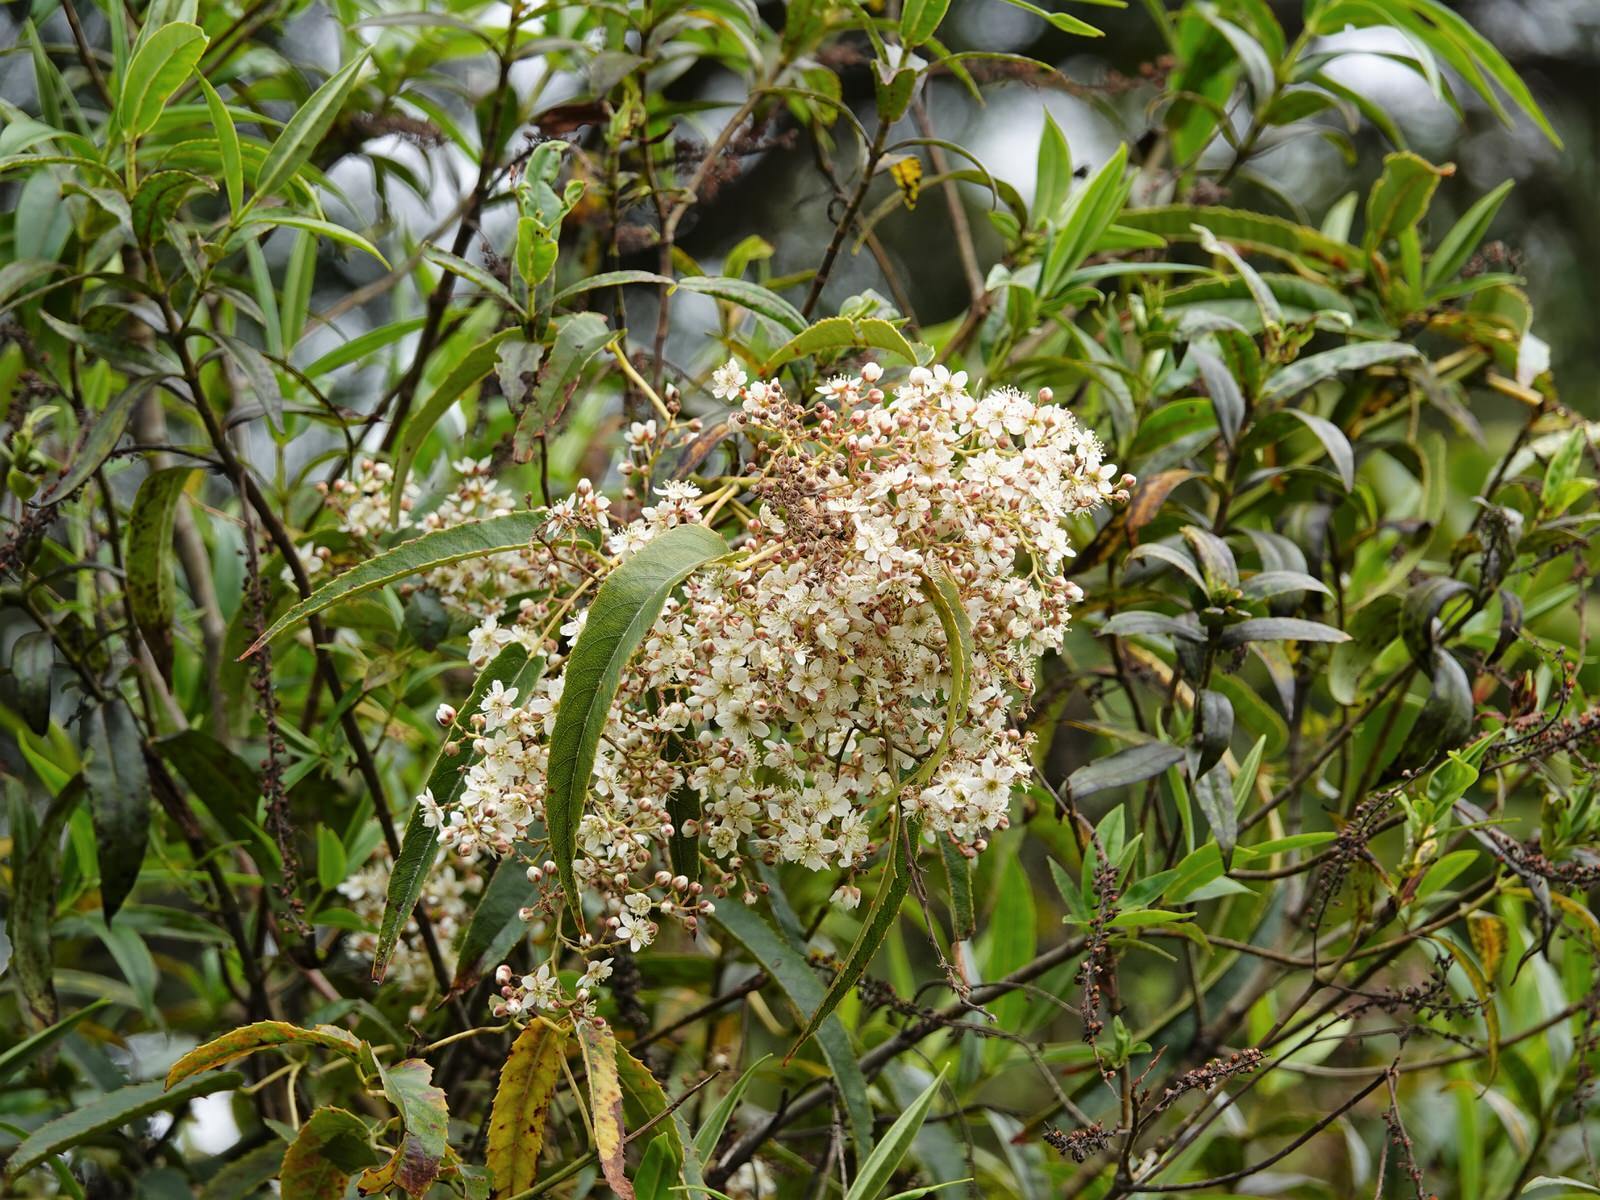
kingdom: Plantae
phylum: Tracheophyta
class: Magnoliopsida
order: Rosales
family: Rosaceae
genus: Rubus
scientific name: Rubus cissoides
